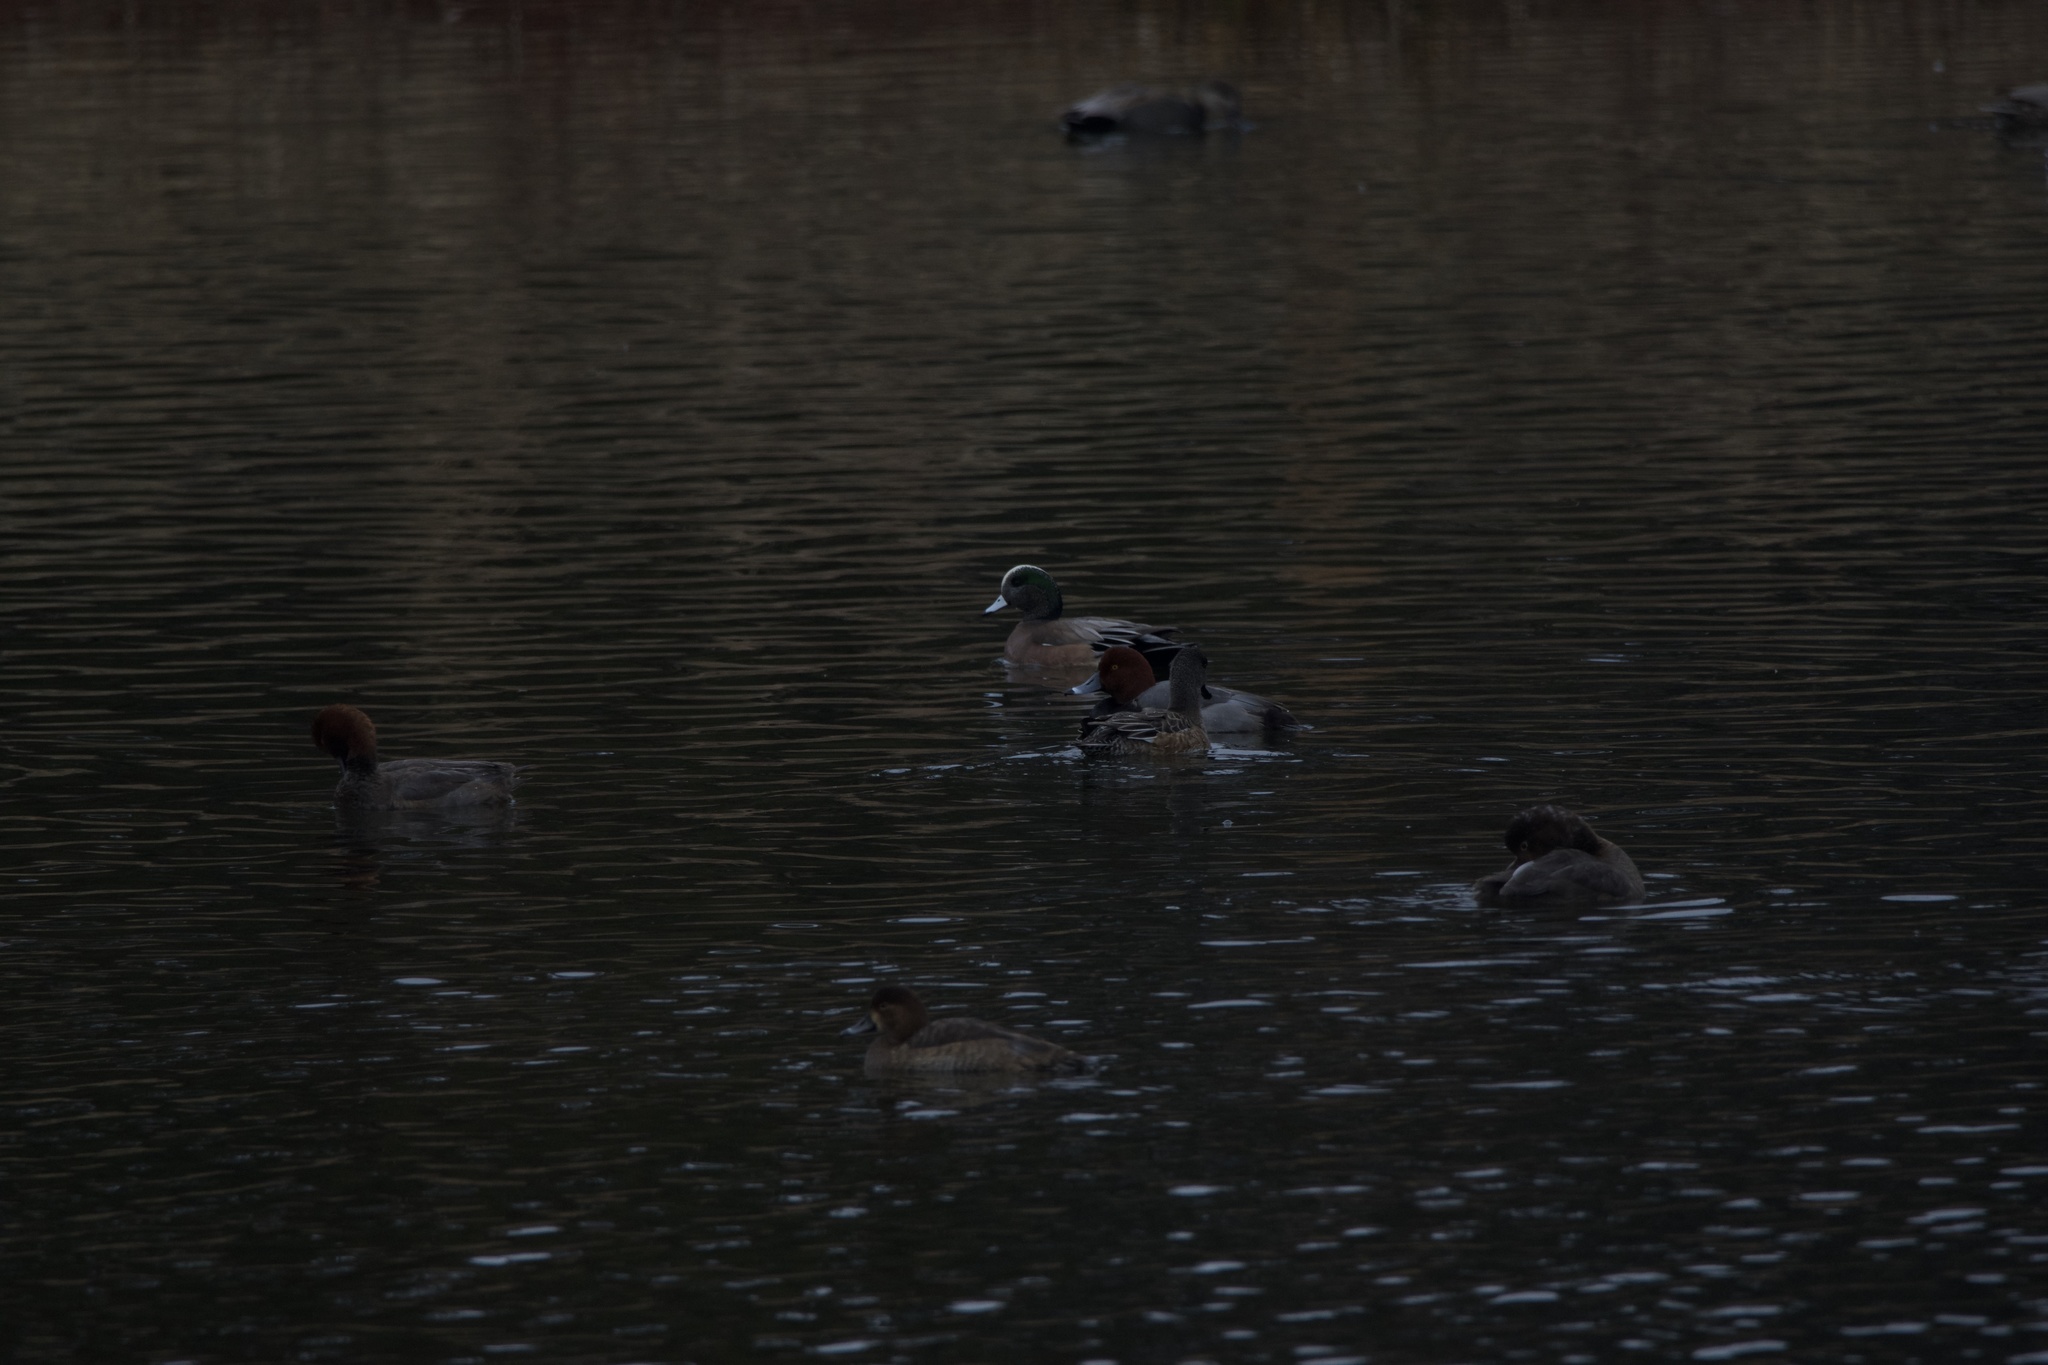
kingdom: Animalia
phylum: Chordata
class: Aves
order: Anseriformes
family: Anatidae
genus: Mareca
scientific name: Mareca americana
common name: American wigeon
